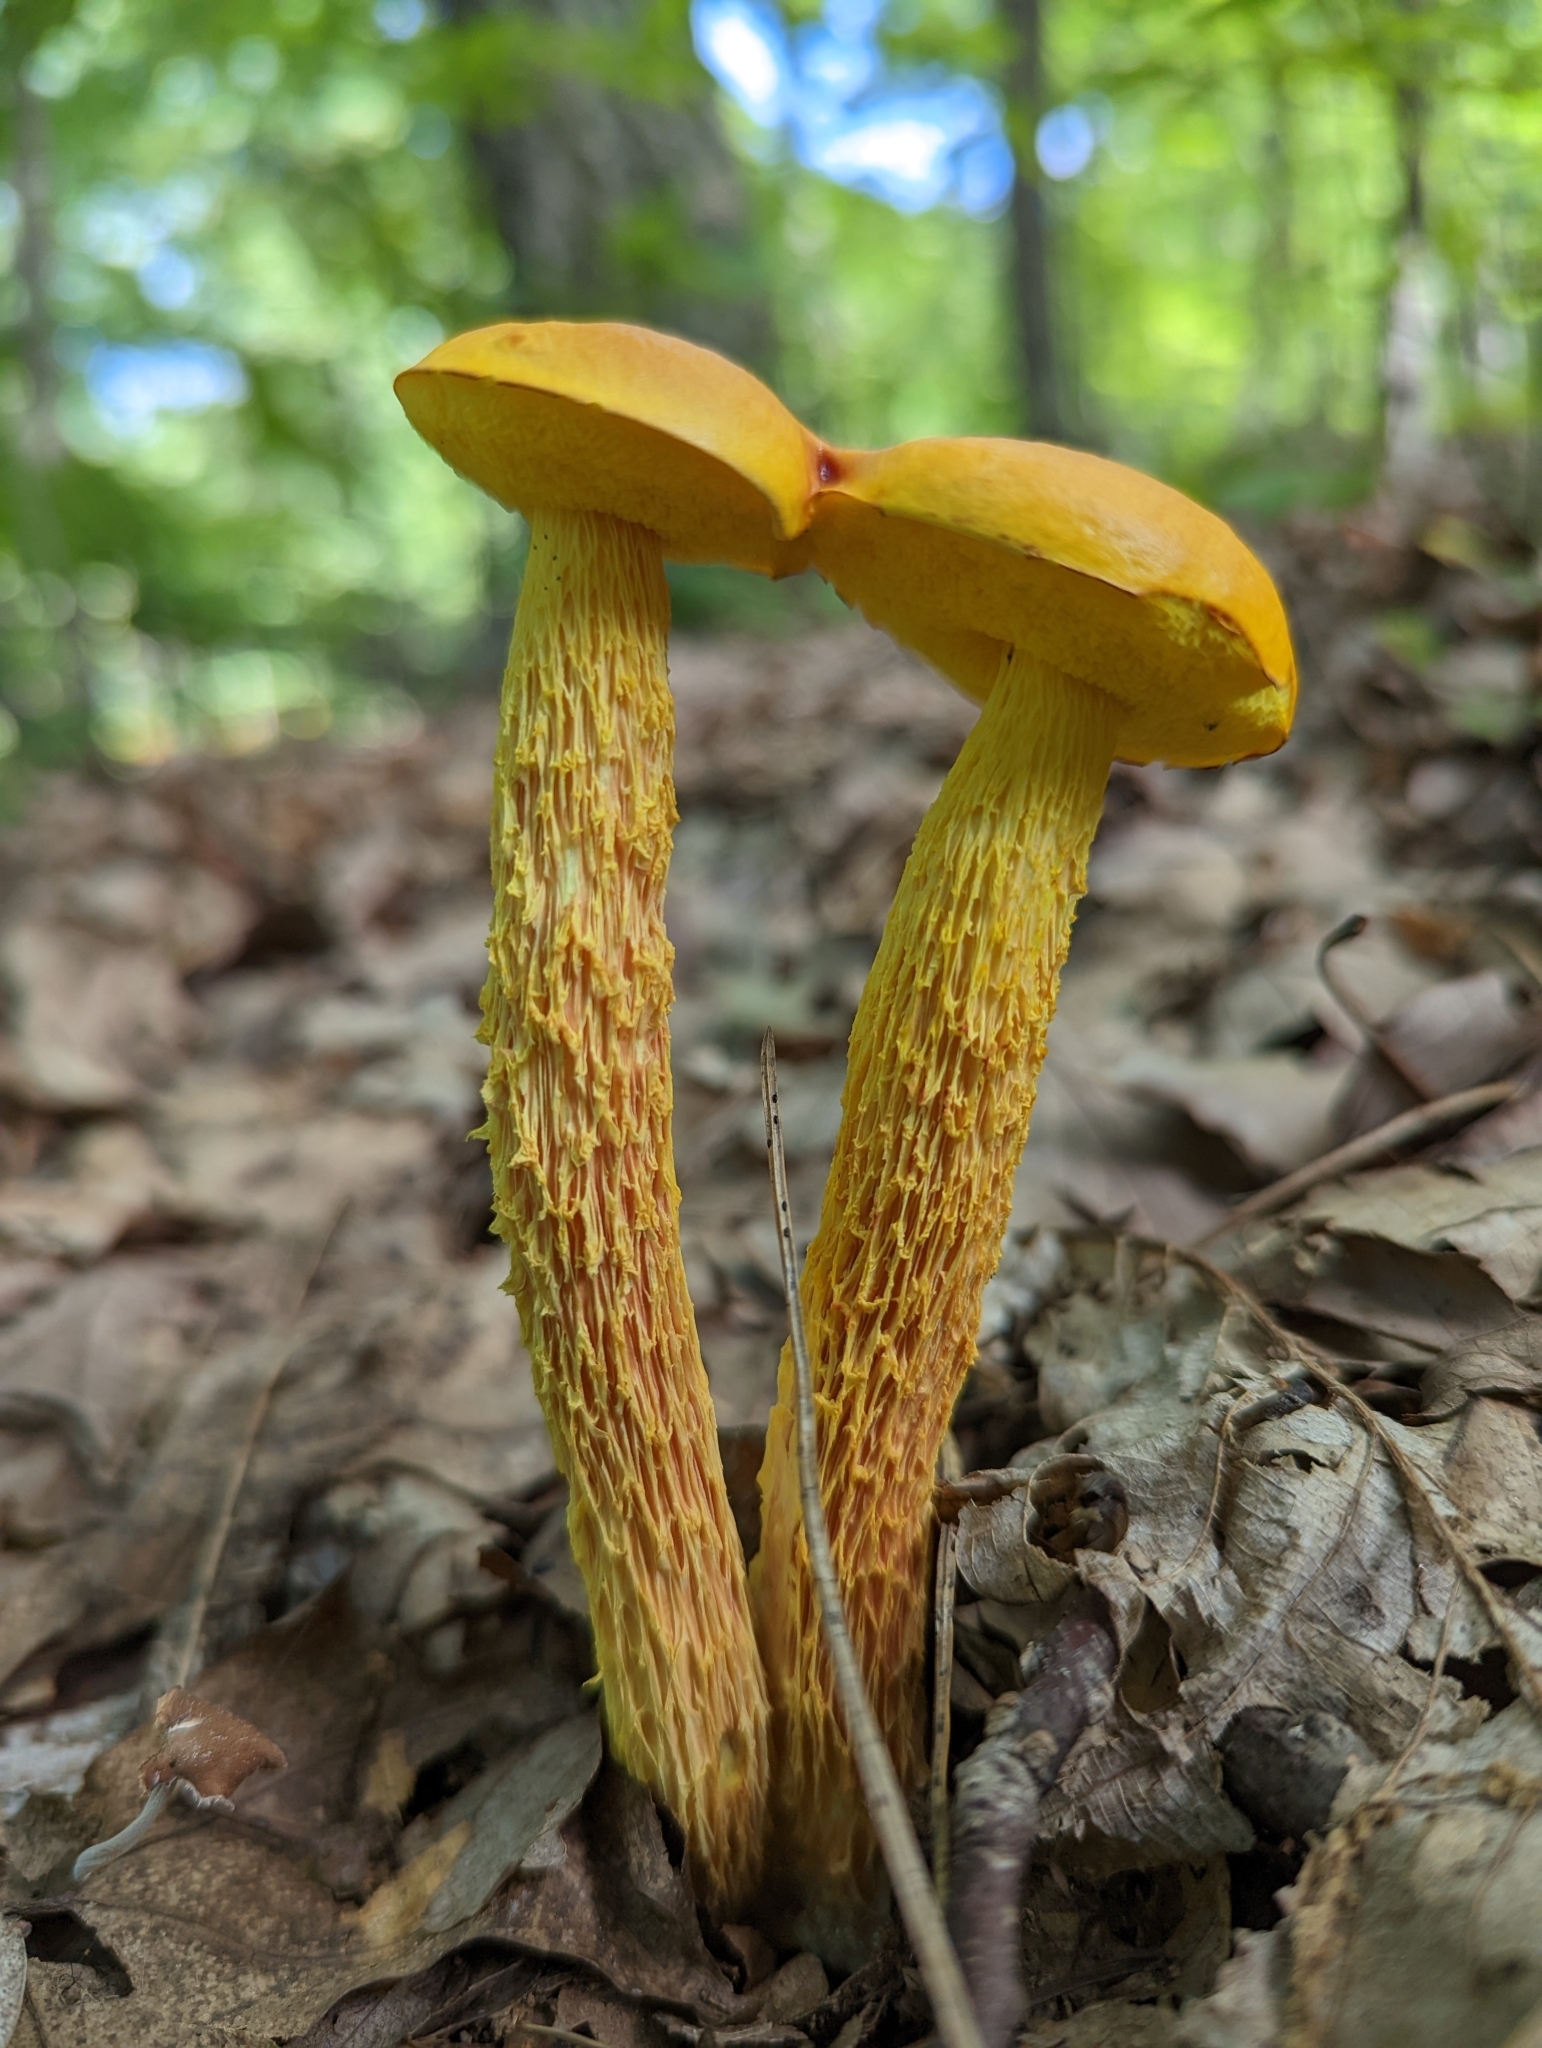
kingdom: Fungi
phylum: Basidiomycota
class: Agaricomycetes
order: Boletales
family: Boletaceae
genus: Aureoboletus
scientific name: Aureoboletus betula
